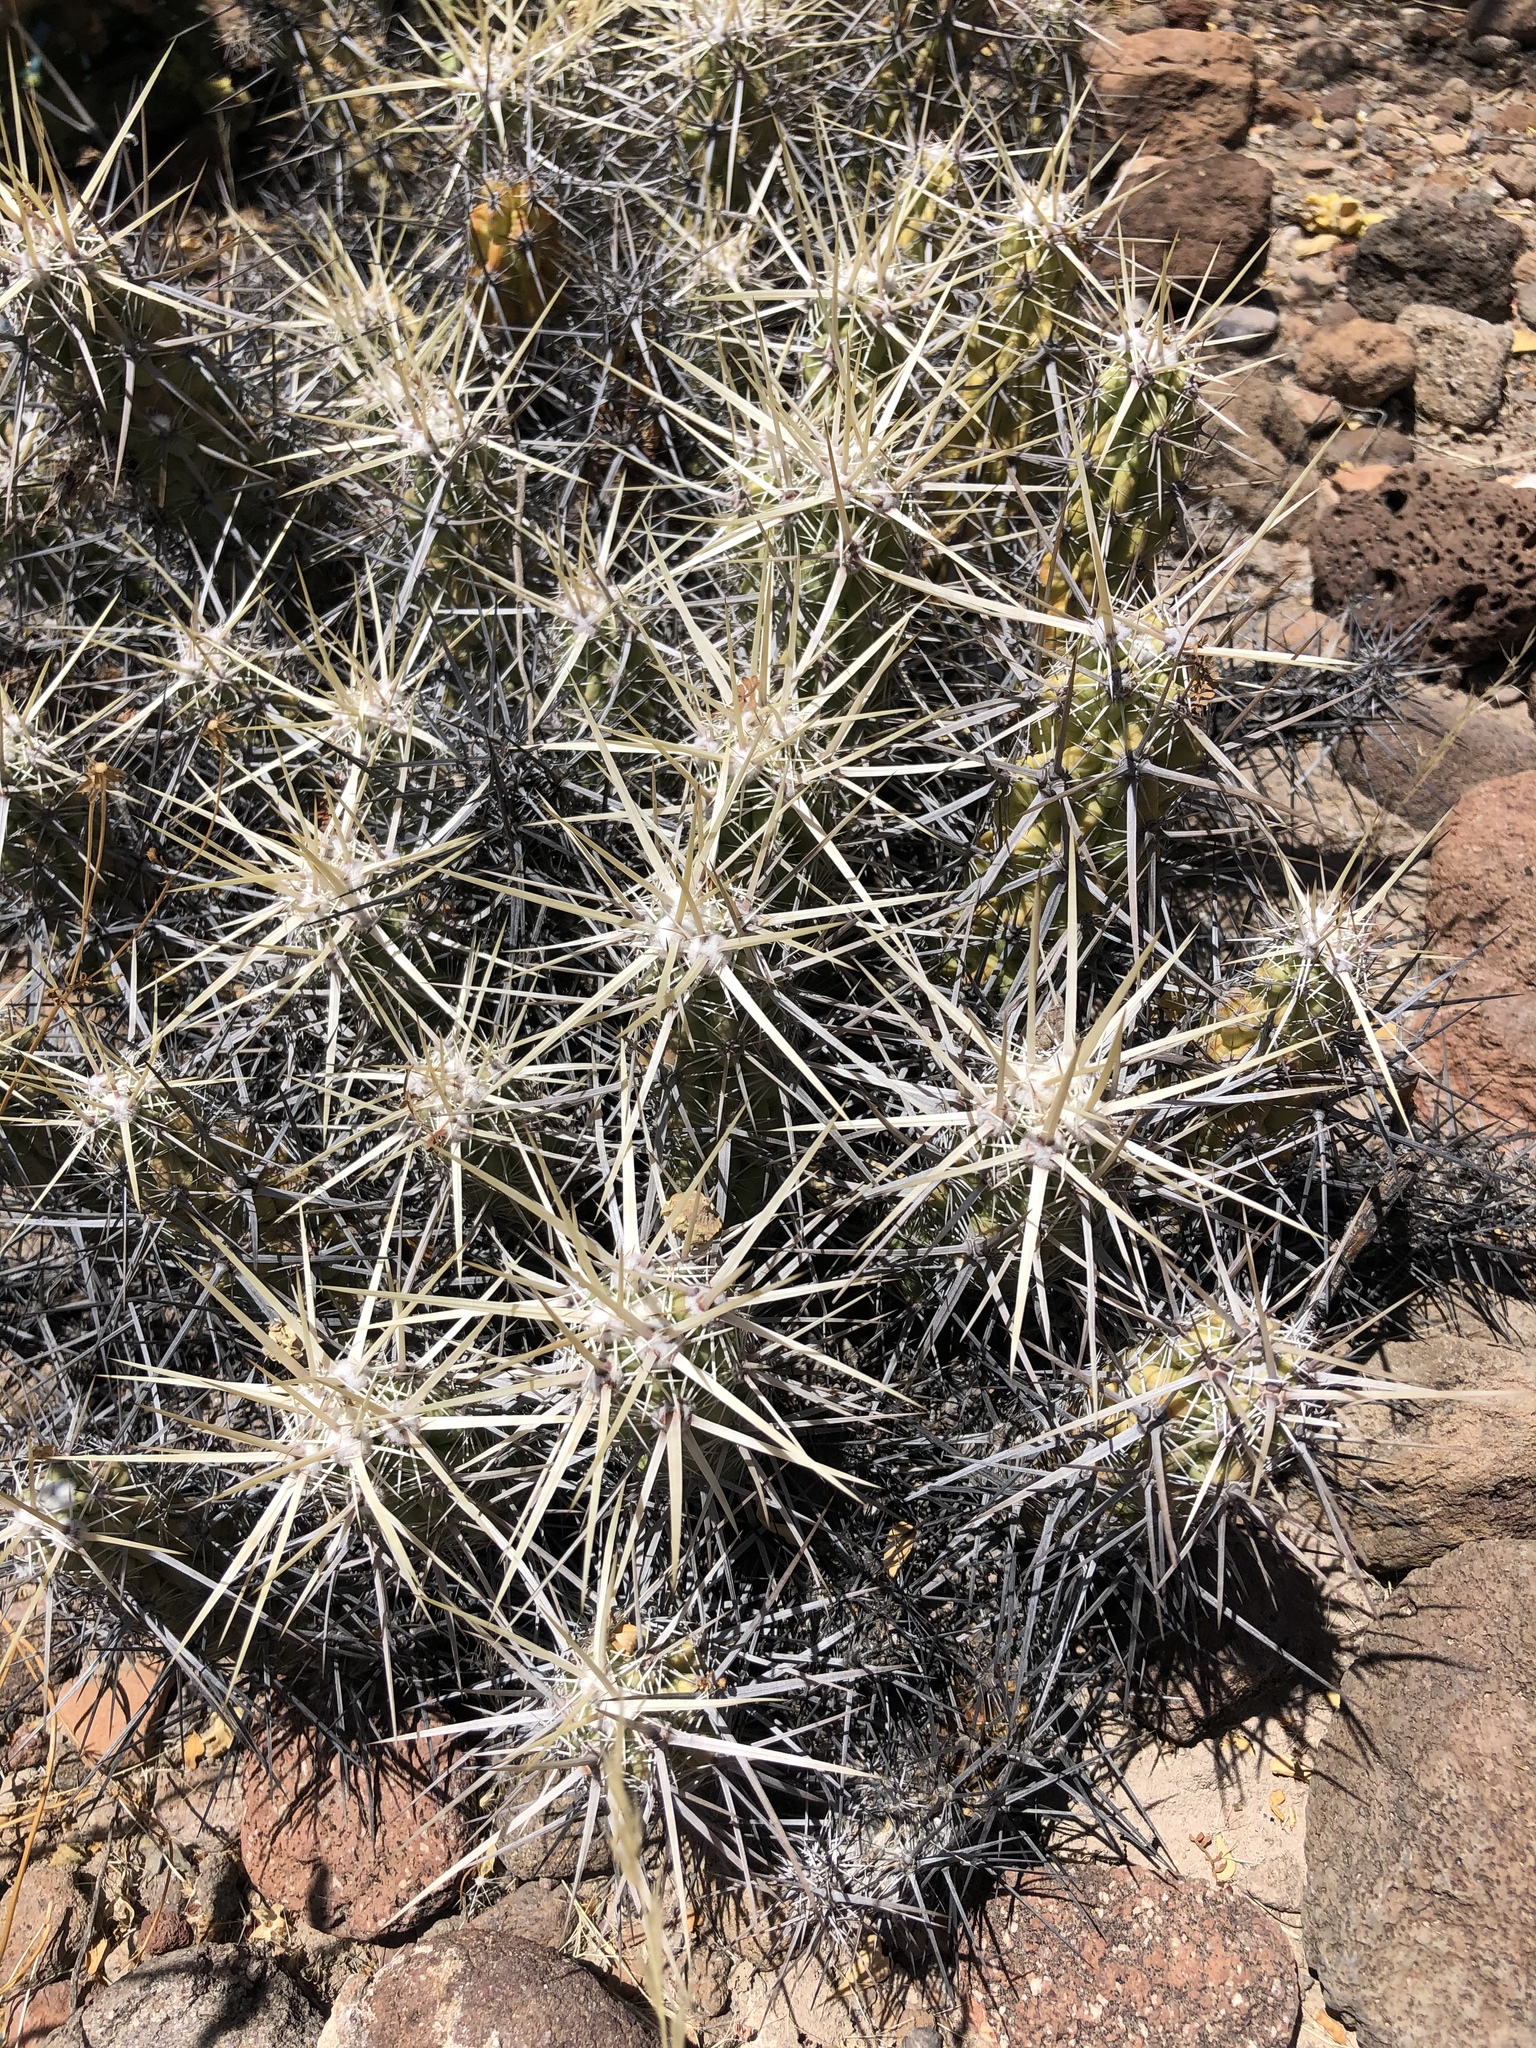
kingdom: Plantae
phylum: Tracheophyta
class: Magnoliopsida
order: Caryophyllales
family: Cactaceae
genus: Echinocereus
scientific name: Echinocereus brandegeei
